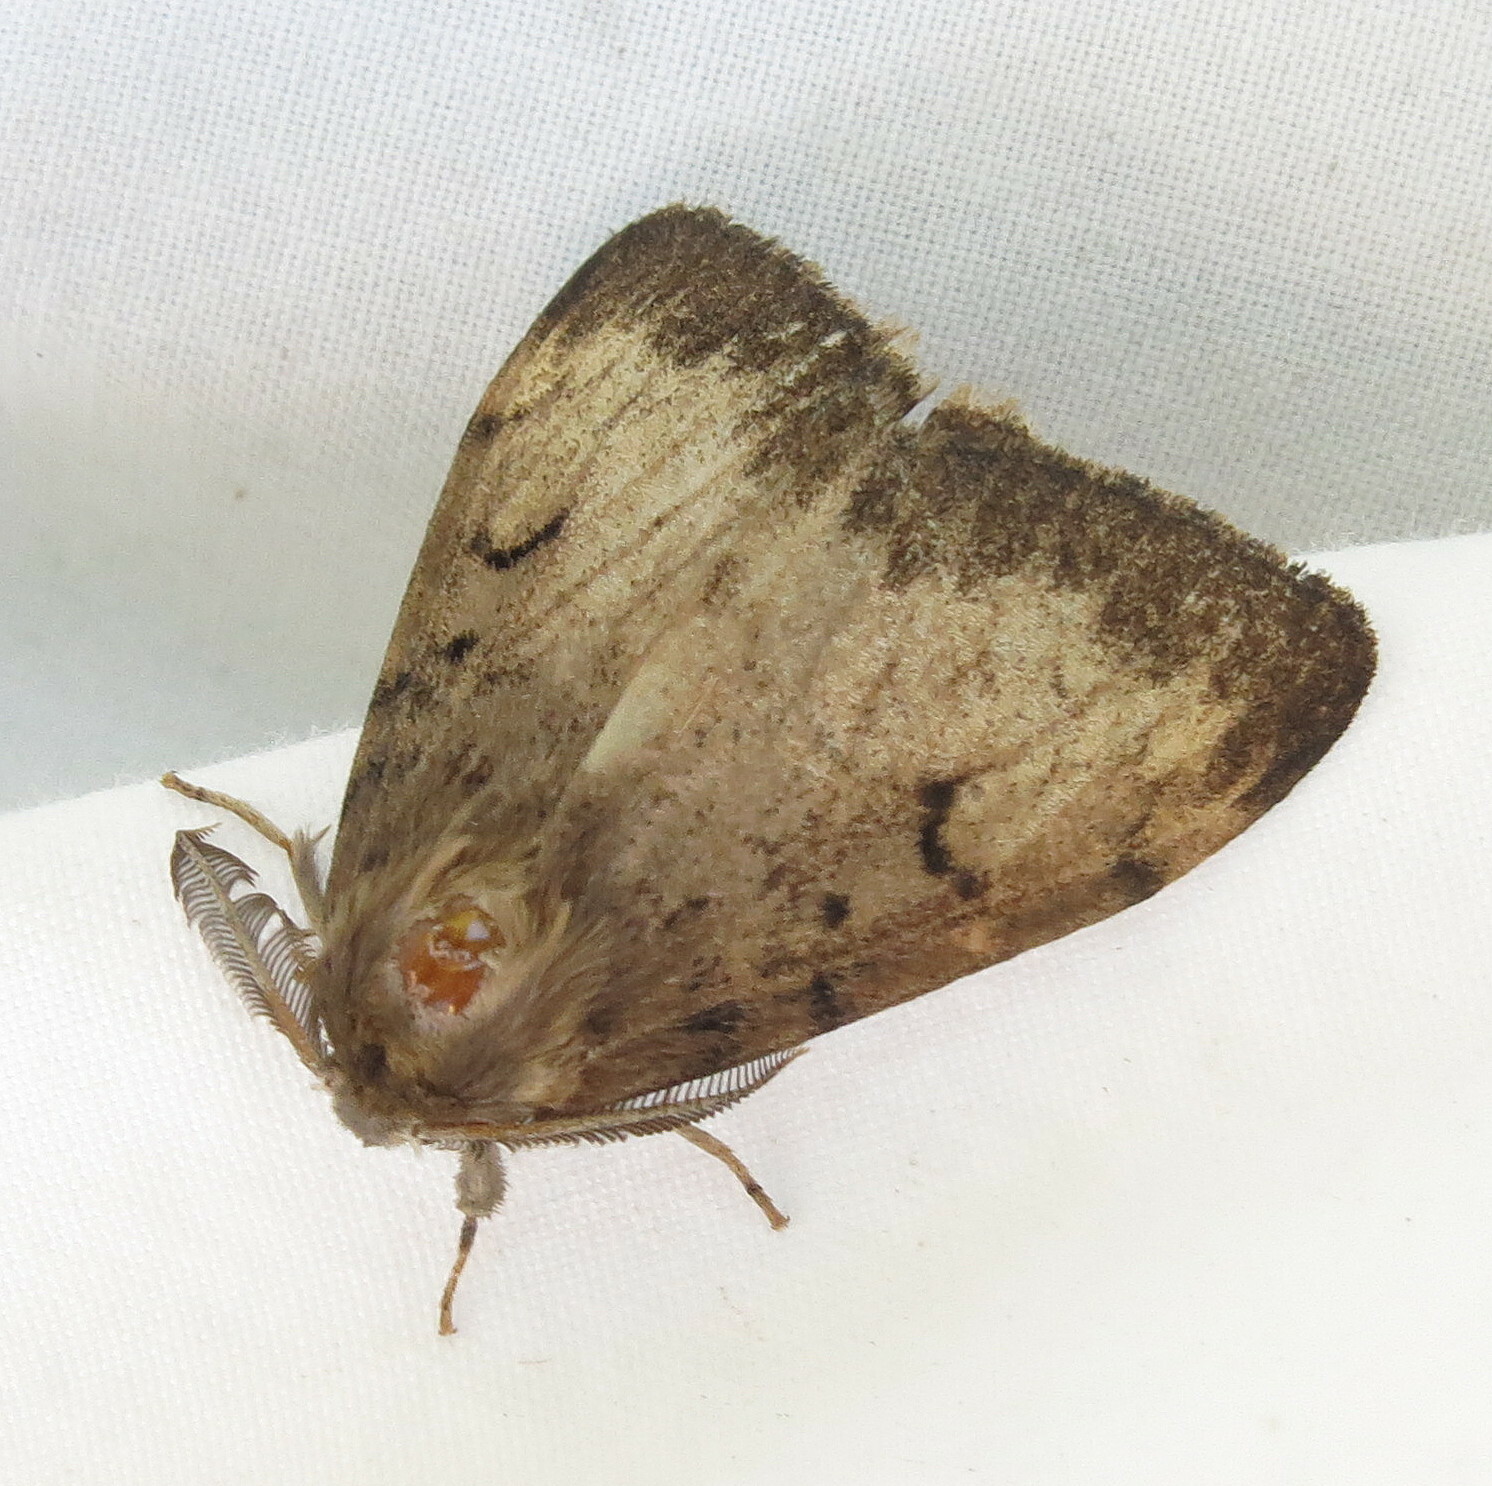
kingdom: Animalia
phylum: Arthropoda
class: Insecta
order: Lepidoptera
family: Erebidae
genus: Lymantria
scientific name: Lymantria dispar
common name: Gypsy moth
